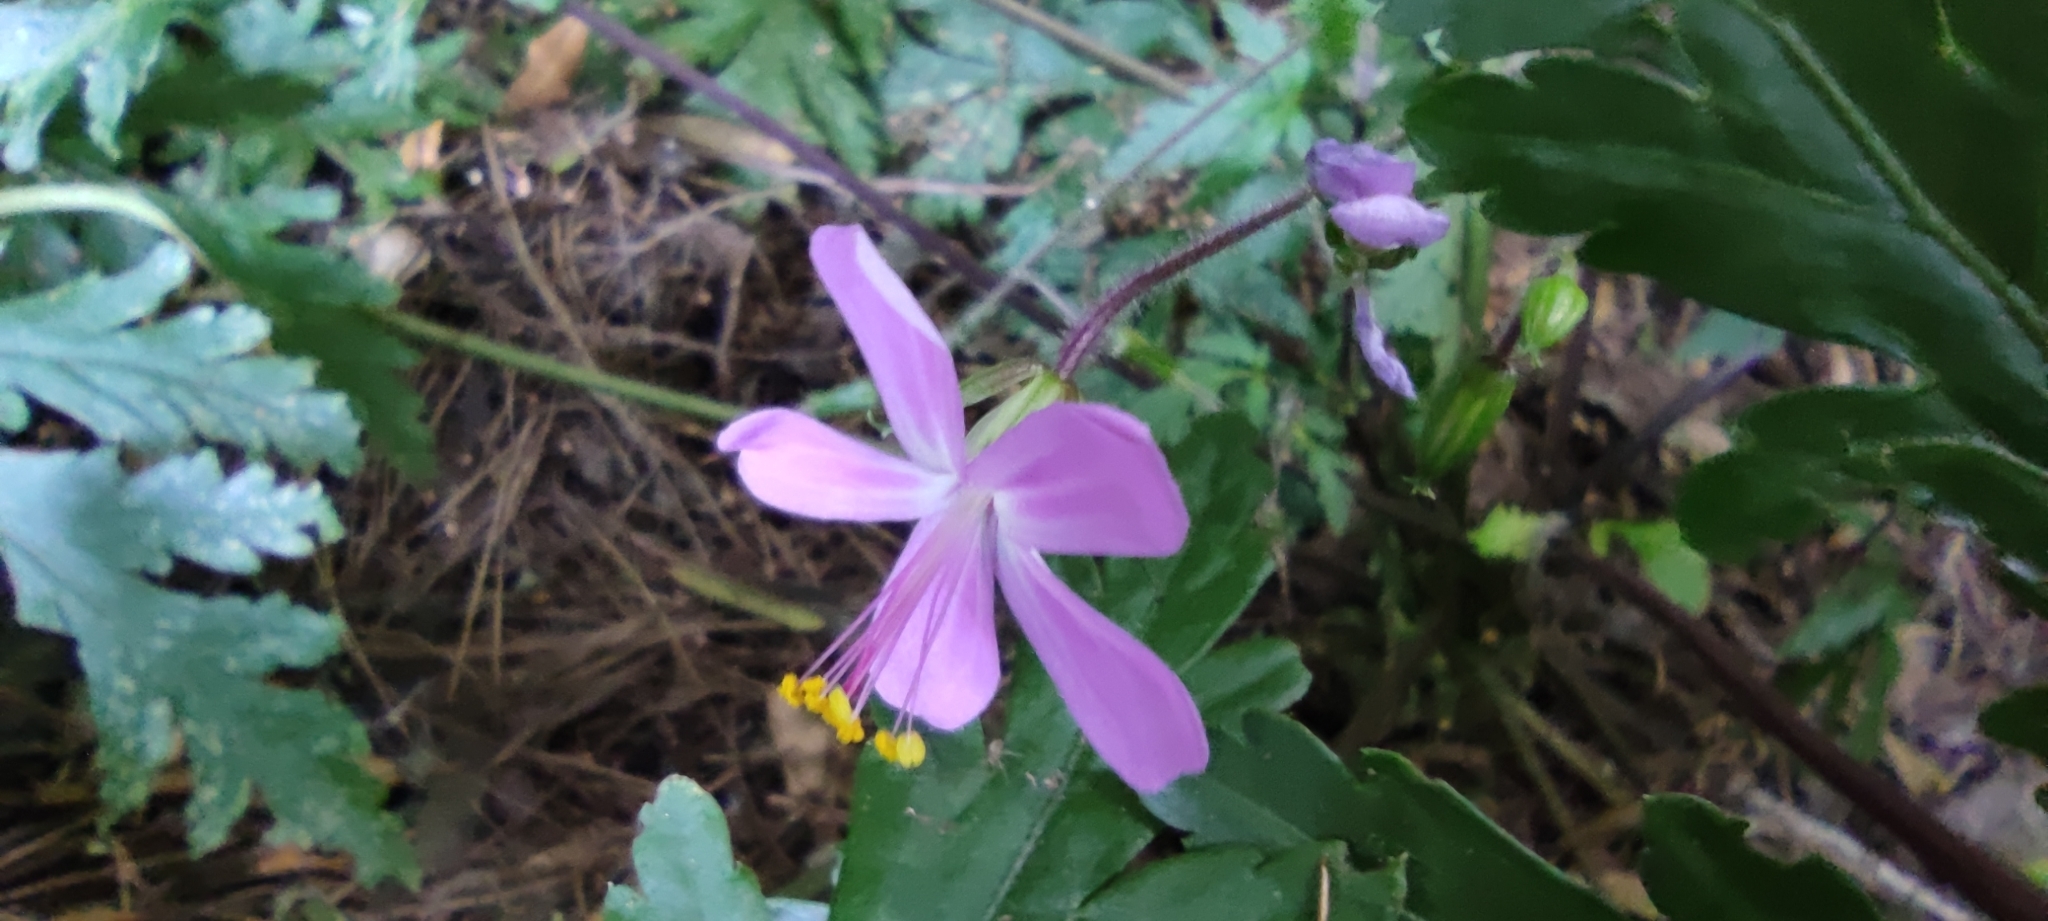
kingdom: Plantae
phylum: Tracheophyta
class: Magnoliopsida
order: Geraniales
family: Geraniaceae
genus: Geranium
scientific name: Geranium reuteri
